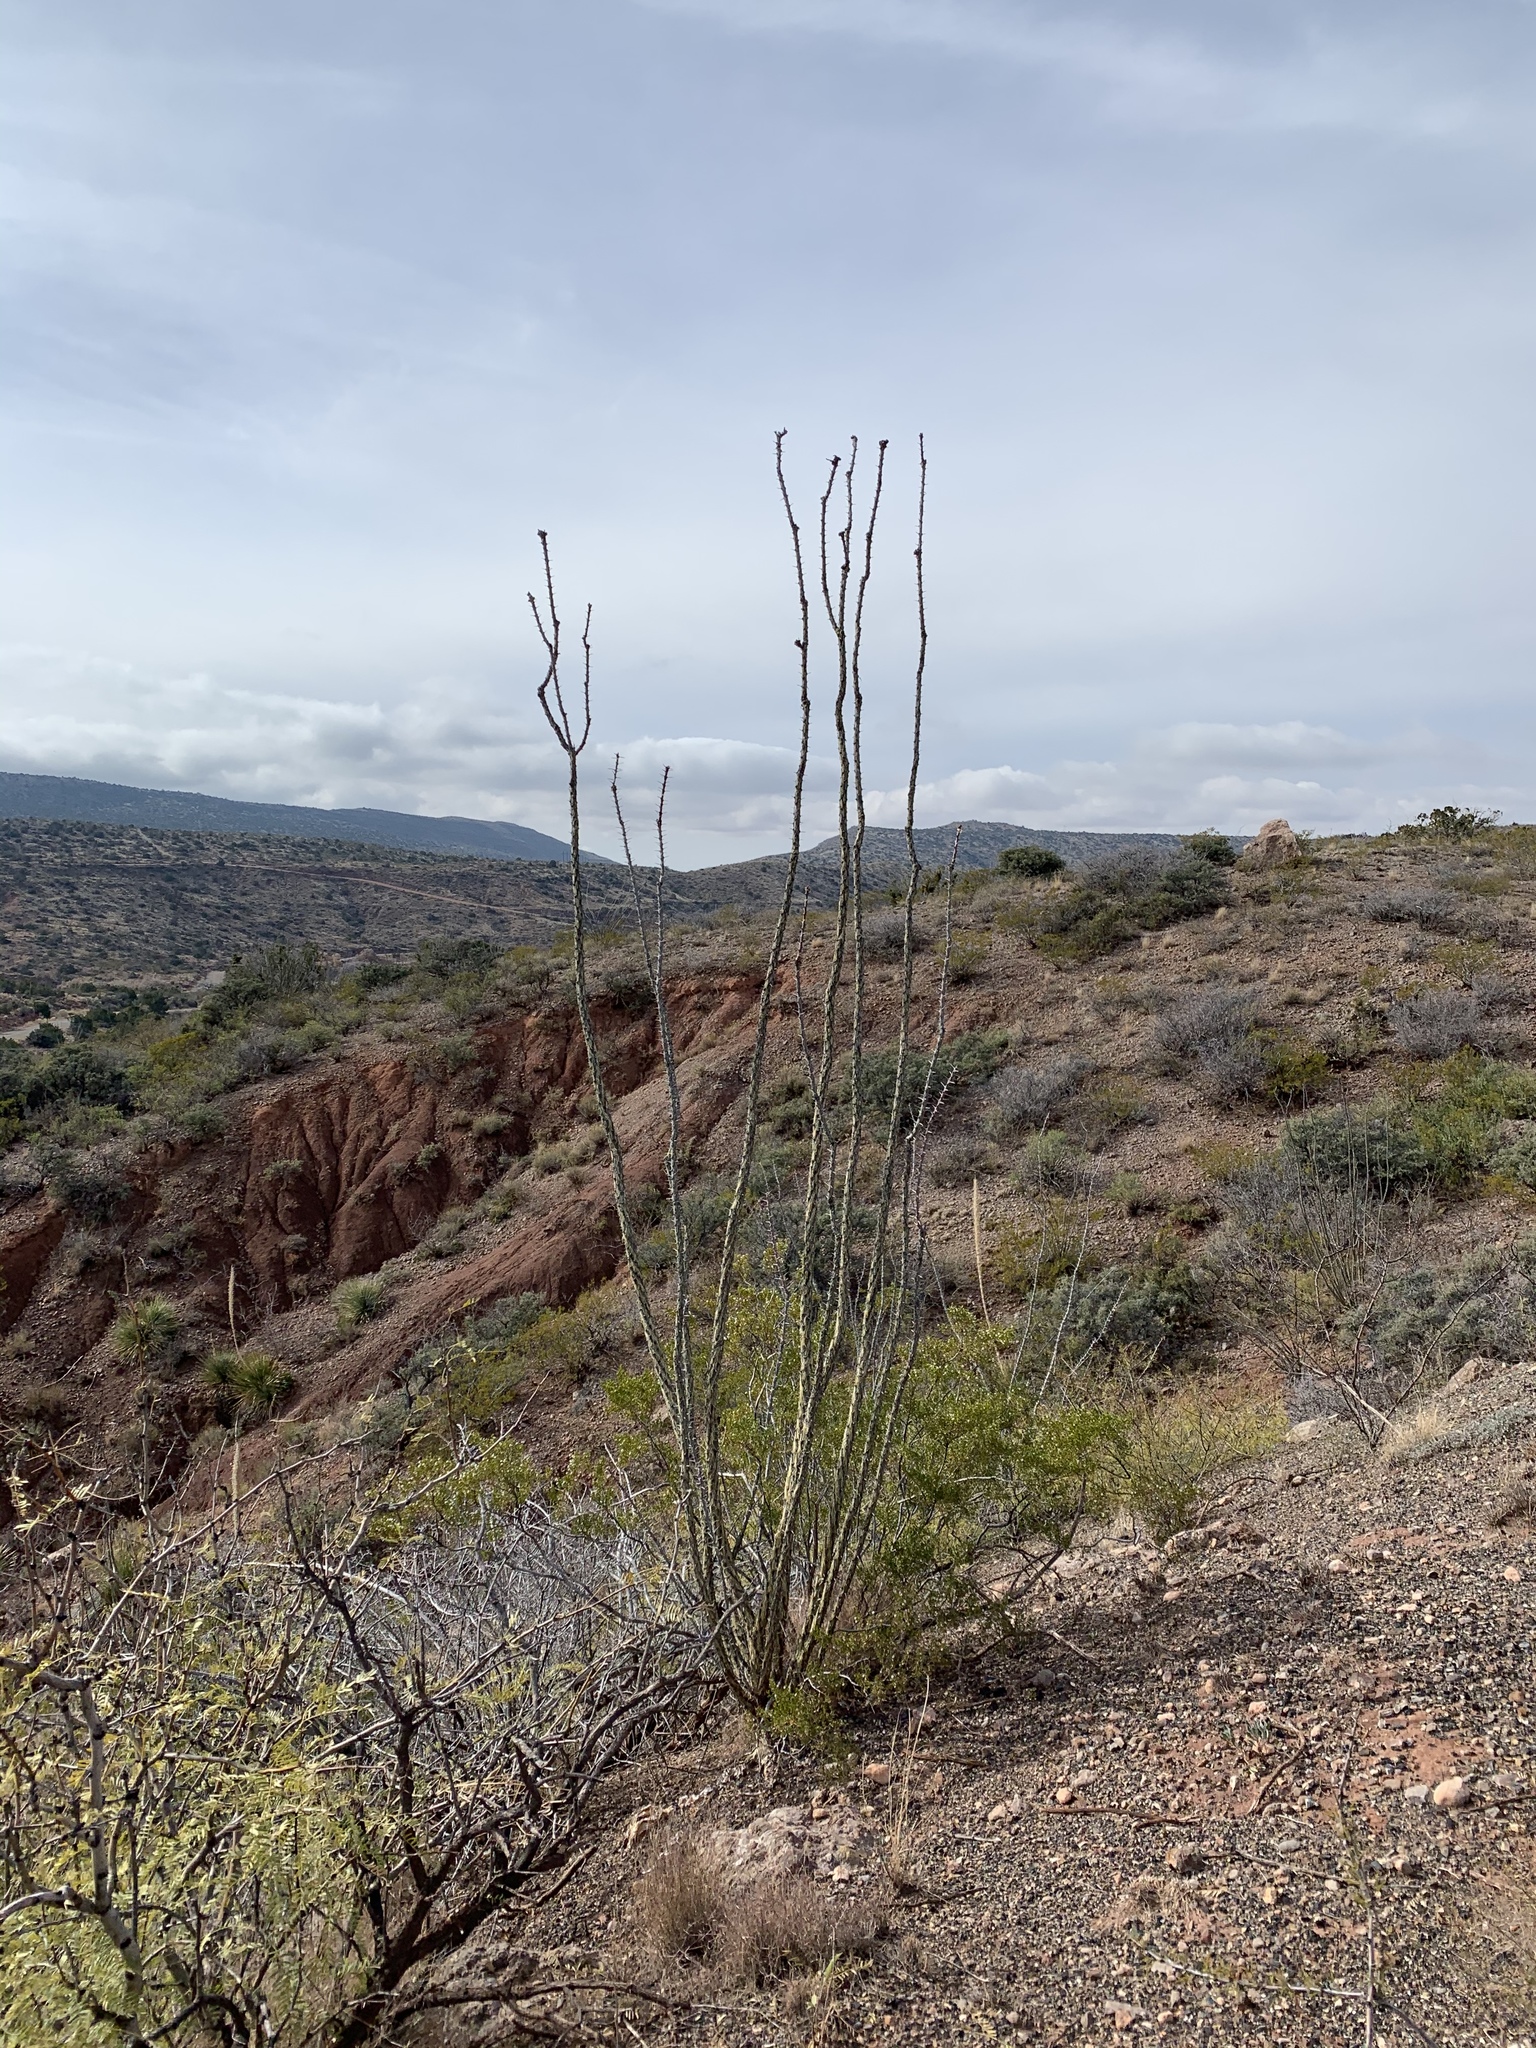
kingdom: Plantae
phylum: Tracheophyta
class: Magnoliopsida
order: Ericales
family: Fouquieriaceae
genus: Fouquieria
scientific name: Fouquieria splendens
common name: Vine-cactus
